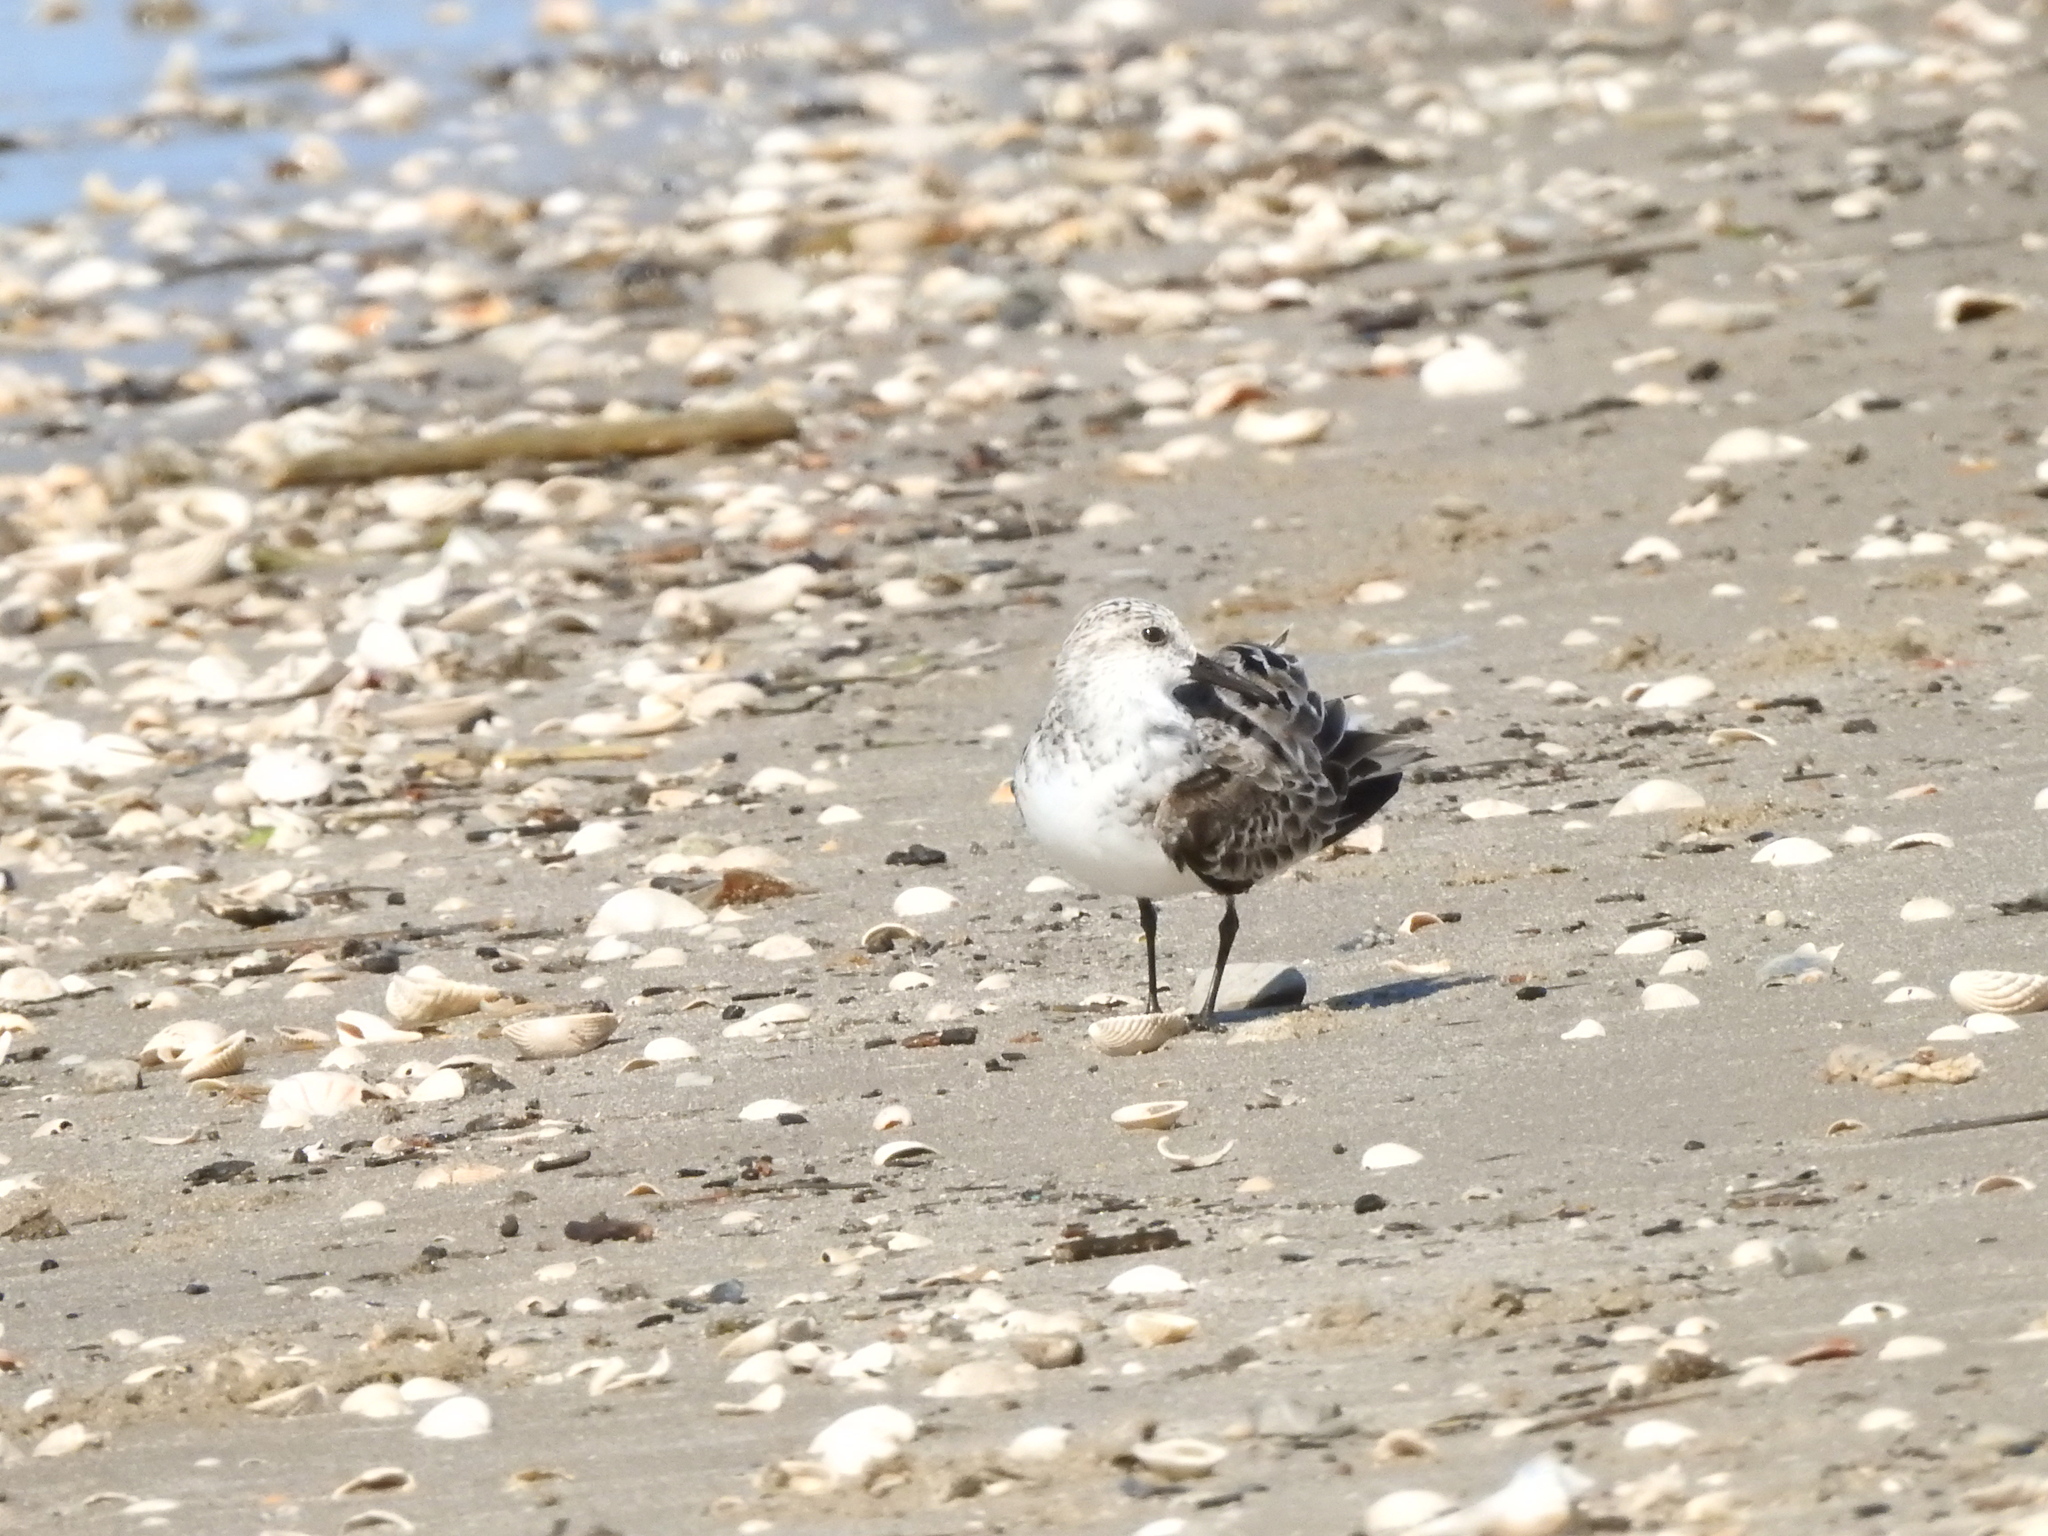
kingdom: Animalia
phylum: Chordata
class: Aves
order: Charadriiformes
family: Scolopacidae
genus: Calidris
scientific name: Calidris alba
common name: Sanderling
